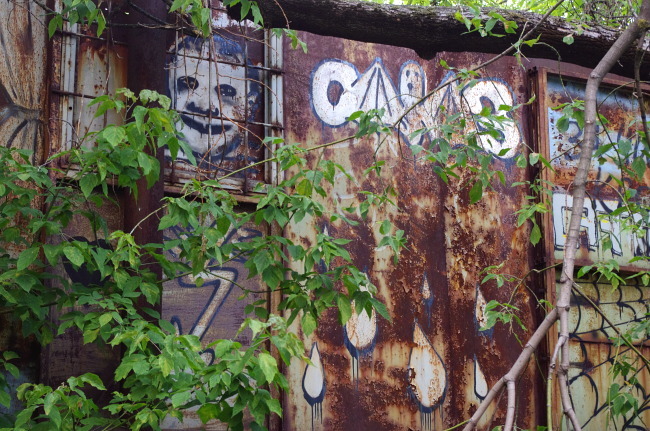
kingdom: Plantae
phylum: Tracheophyta
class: Magnoliopsida
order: Sapindales
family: Sapindaceae
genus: Acer
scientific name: Acer negundo
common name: Ashleaf maple
